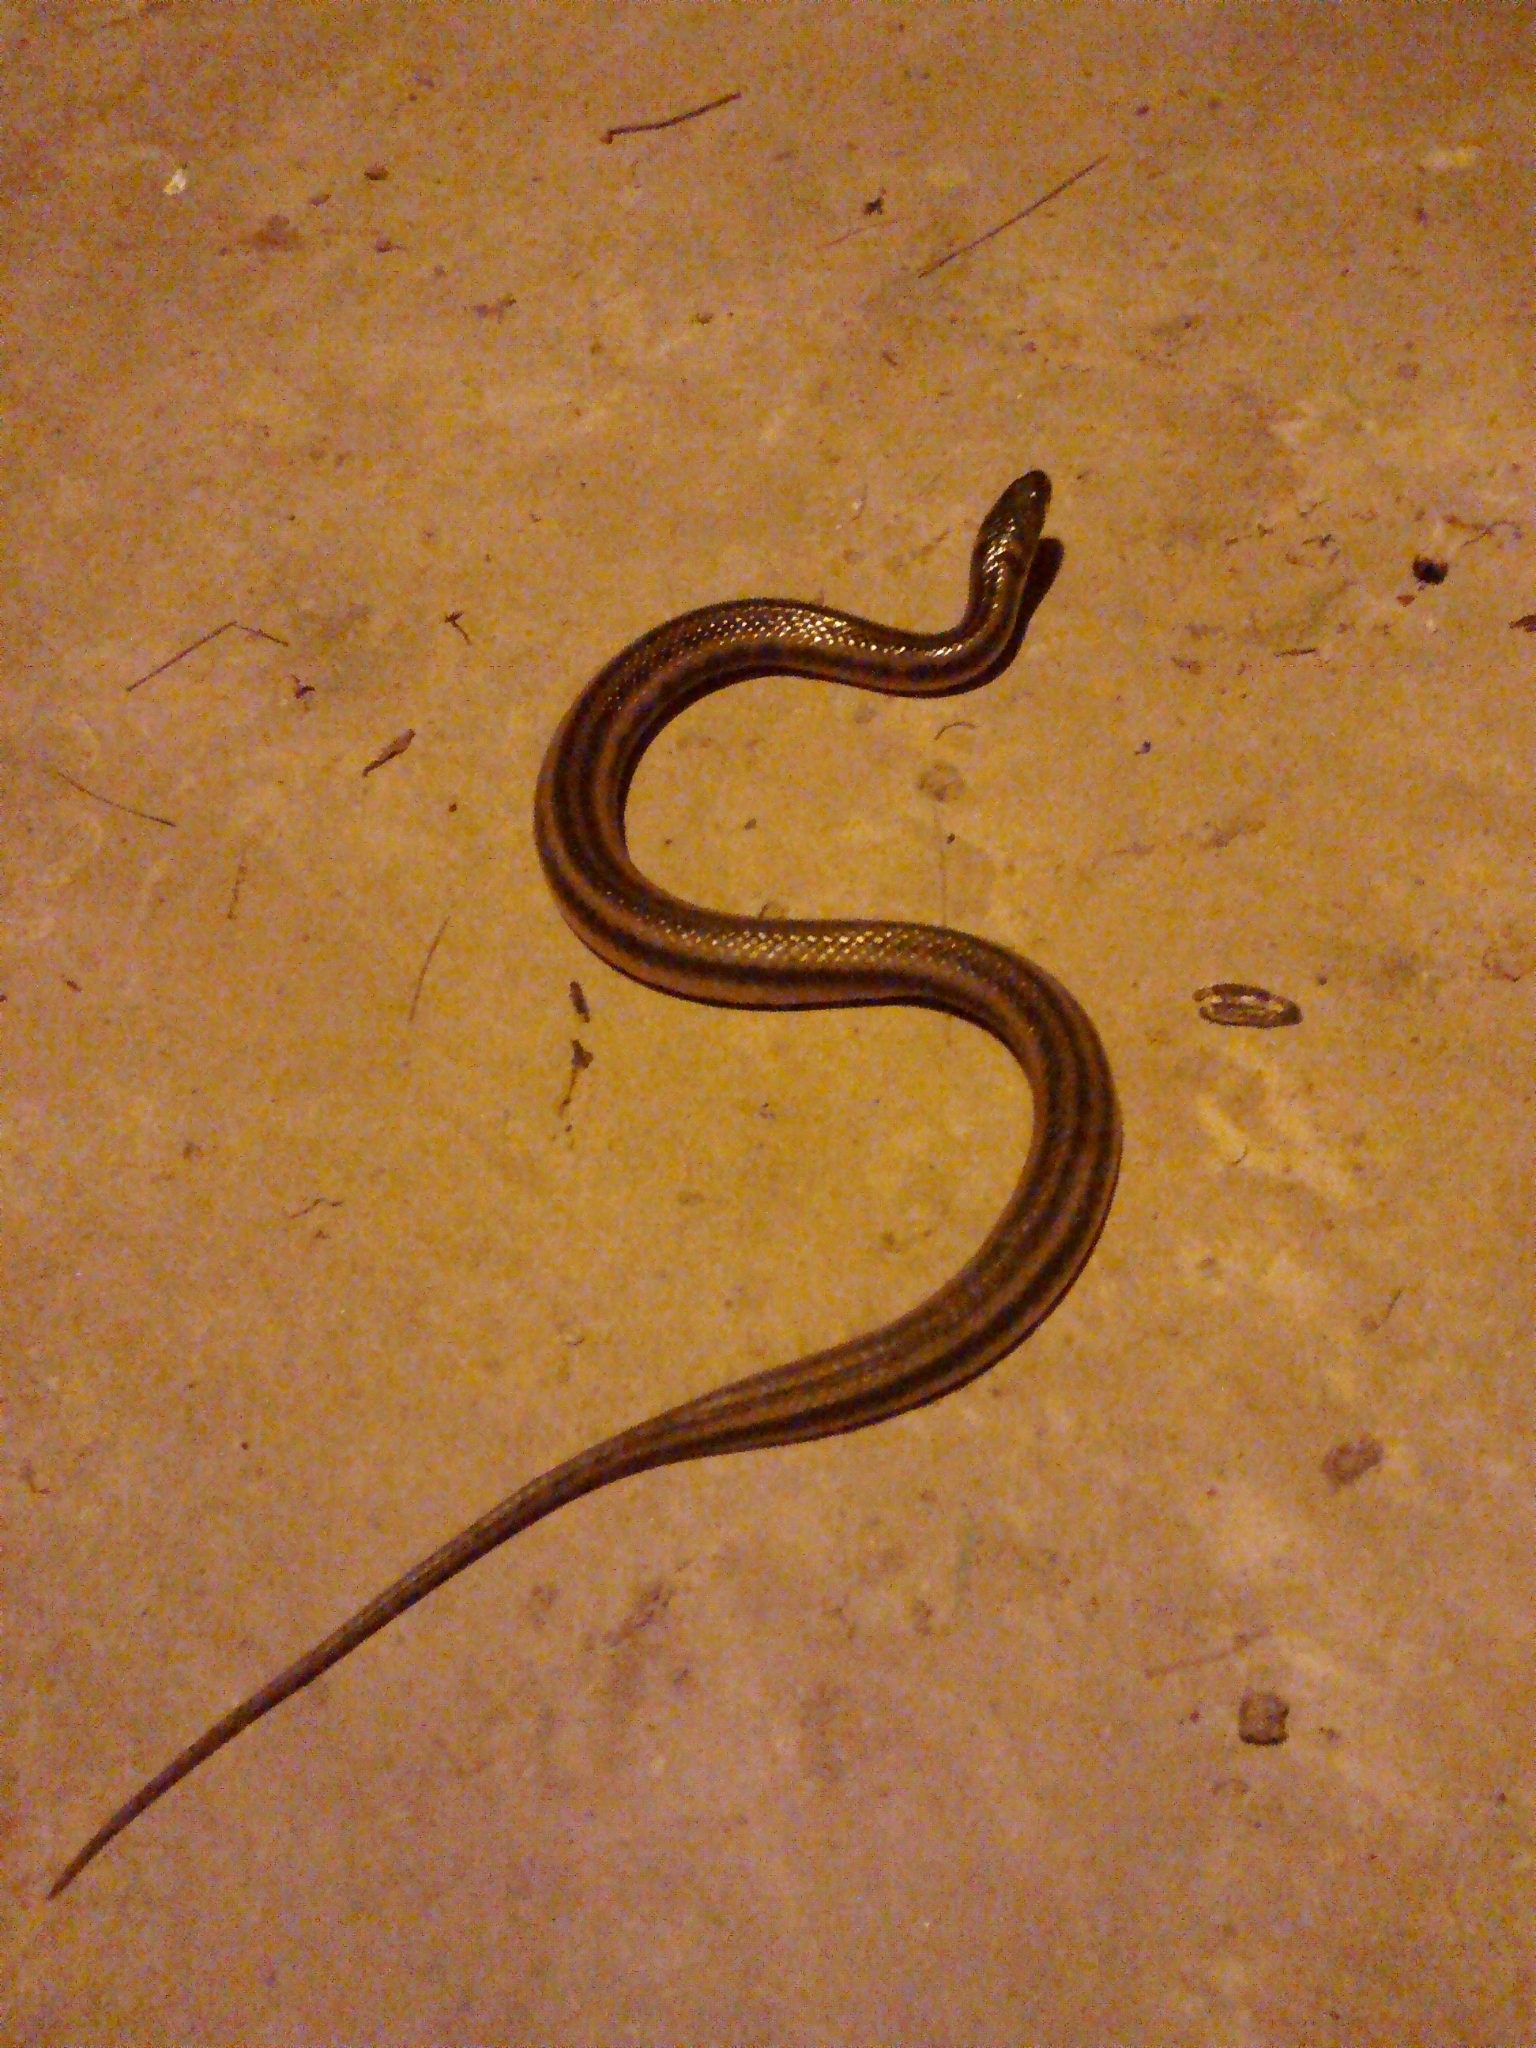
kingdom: Animalia
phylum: Chordata
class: Squamata
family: Colubridae
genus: Helicops
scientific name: Helicops infrataeniatus
